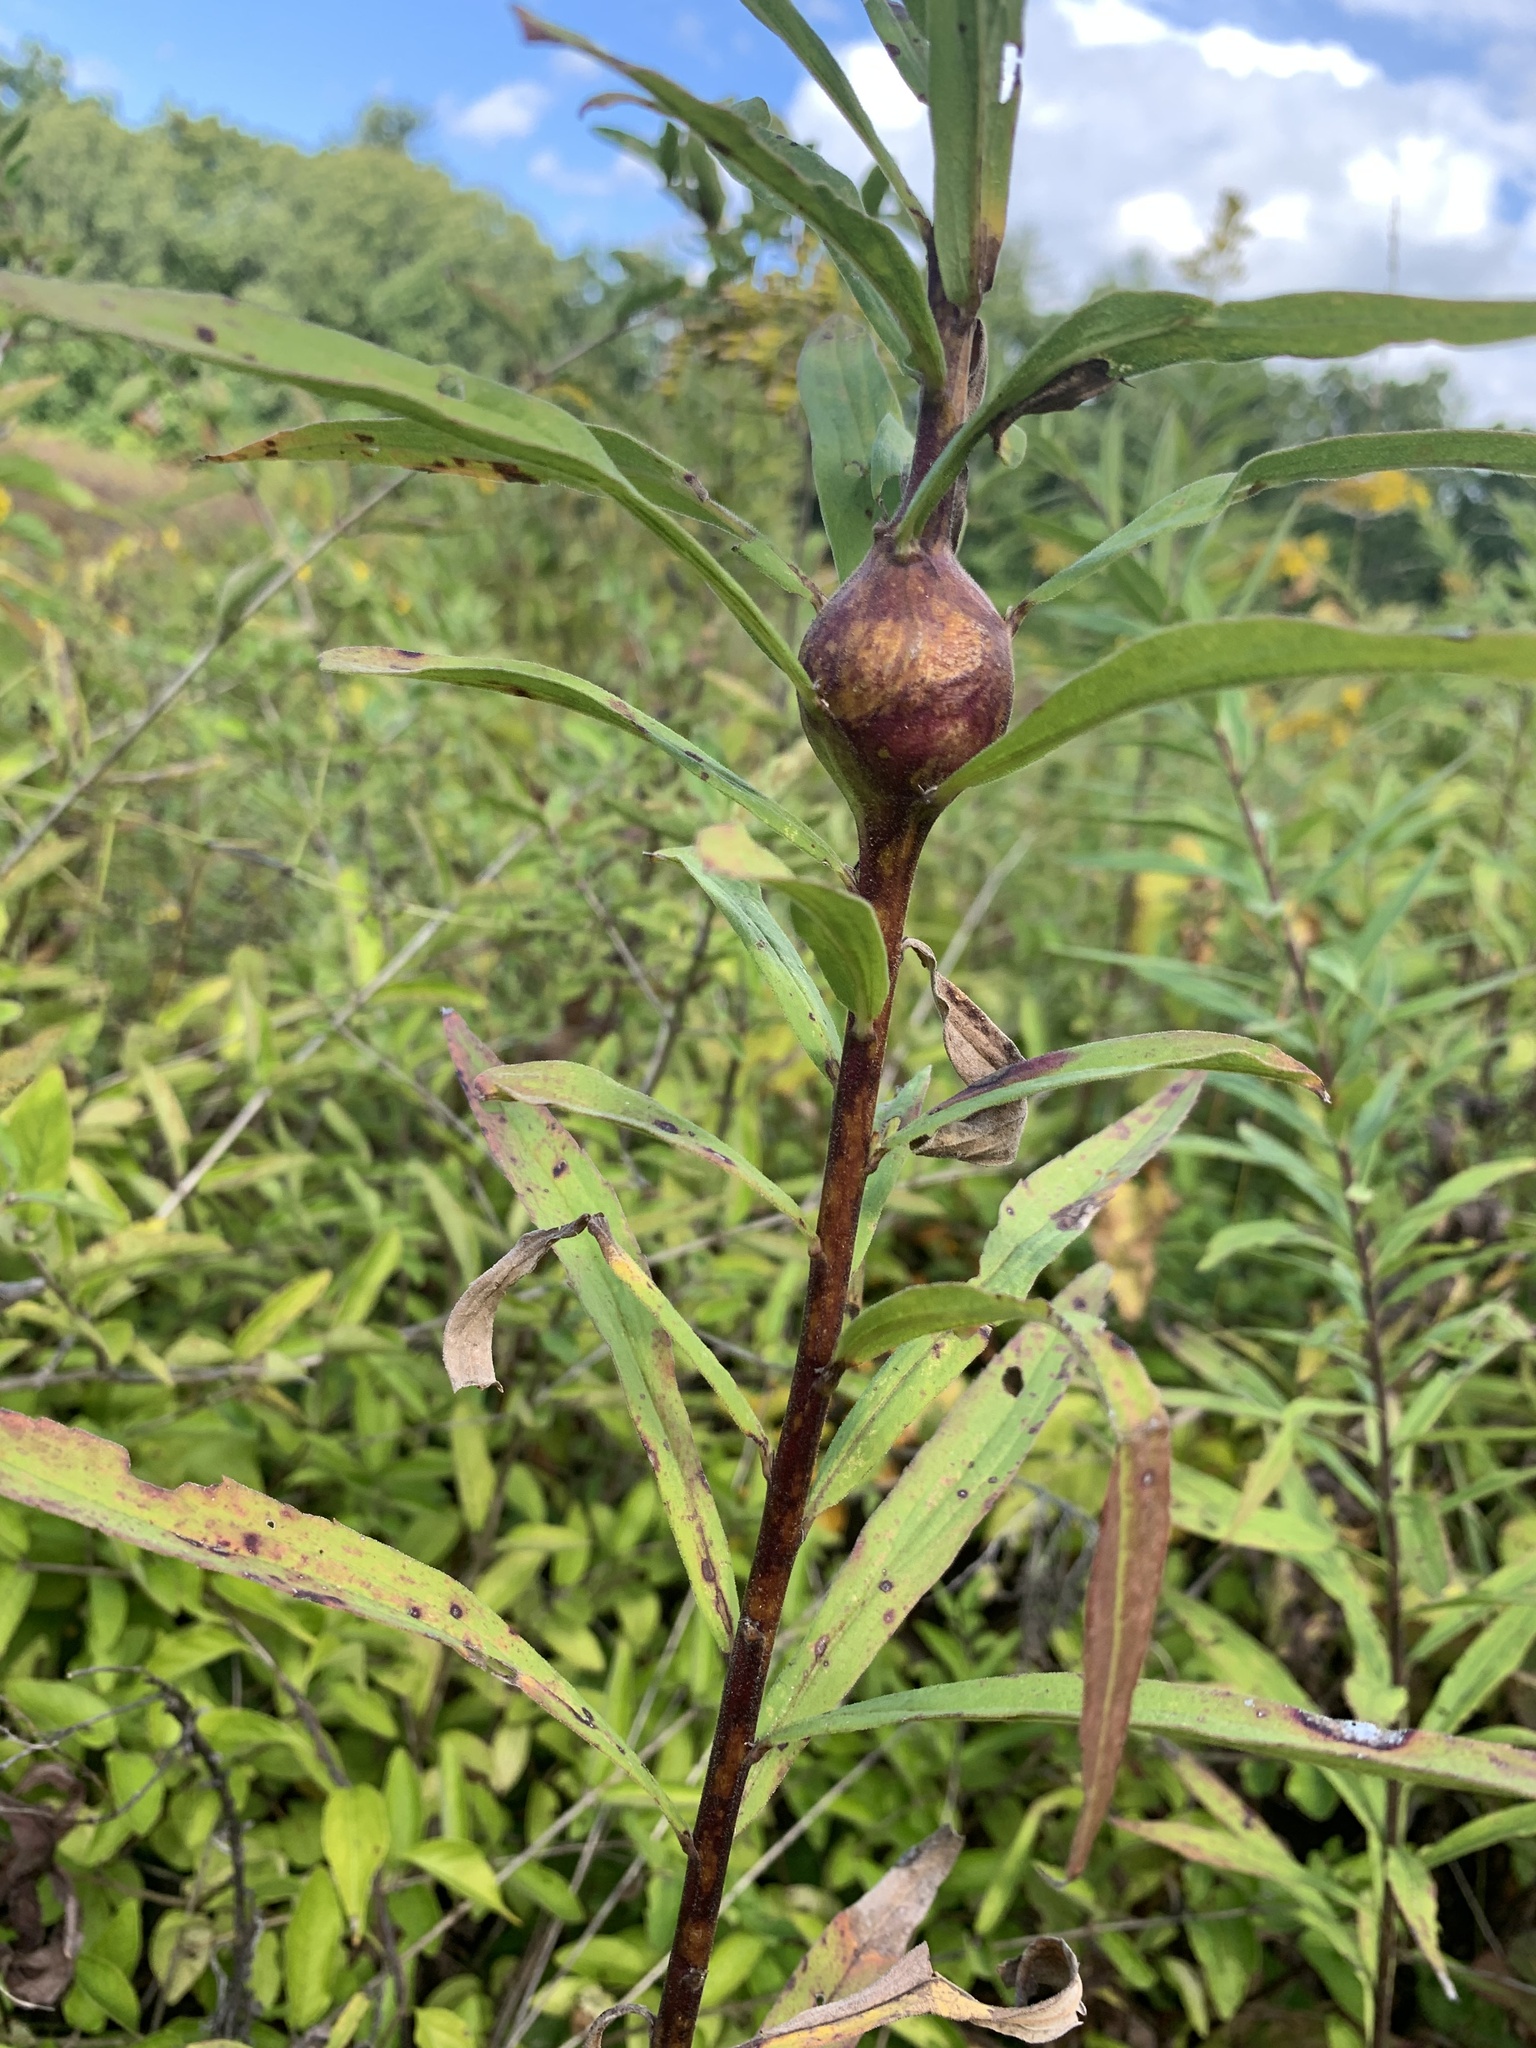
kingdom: Animalia
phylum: Arthropoda
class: Insecta
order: Diptera
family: Tephritidae
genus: Eurosta
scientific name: Eurosta solidaginis
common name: Goldenrod gall fly
